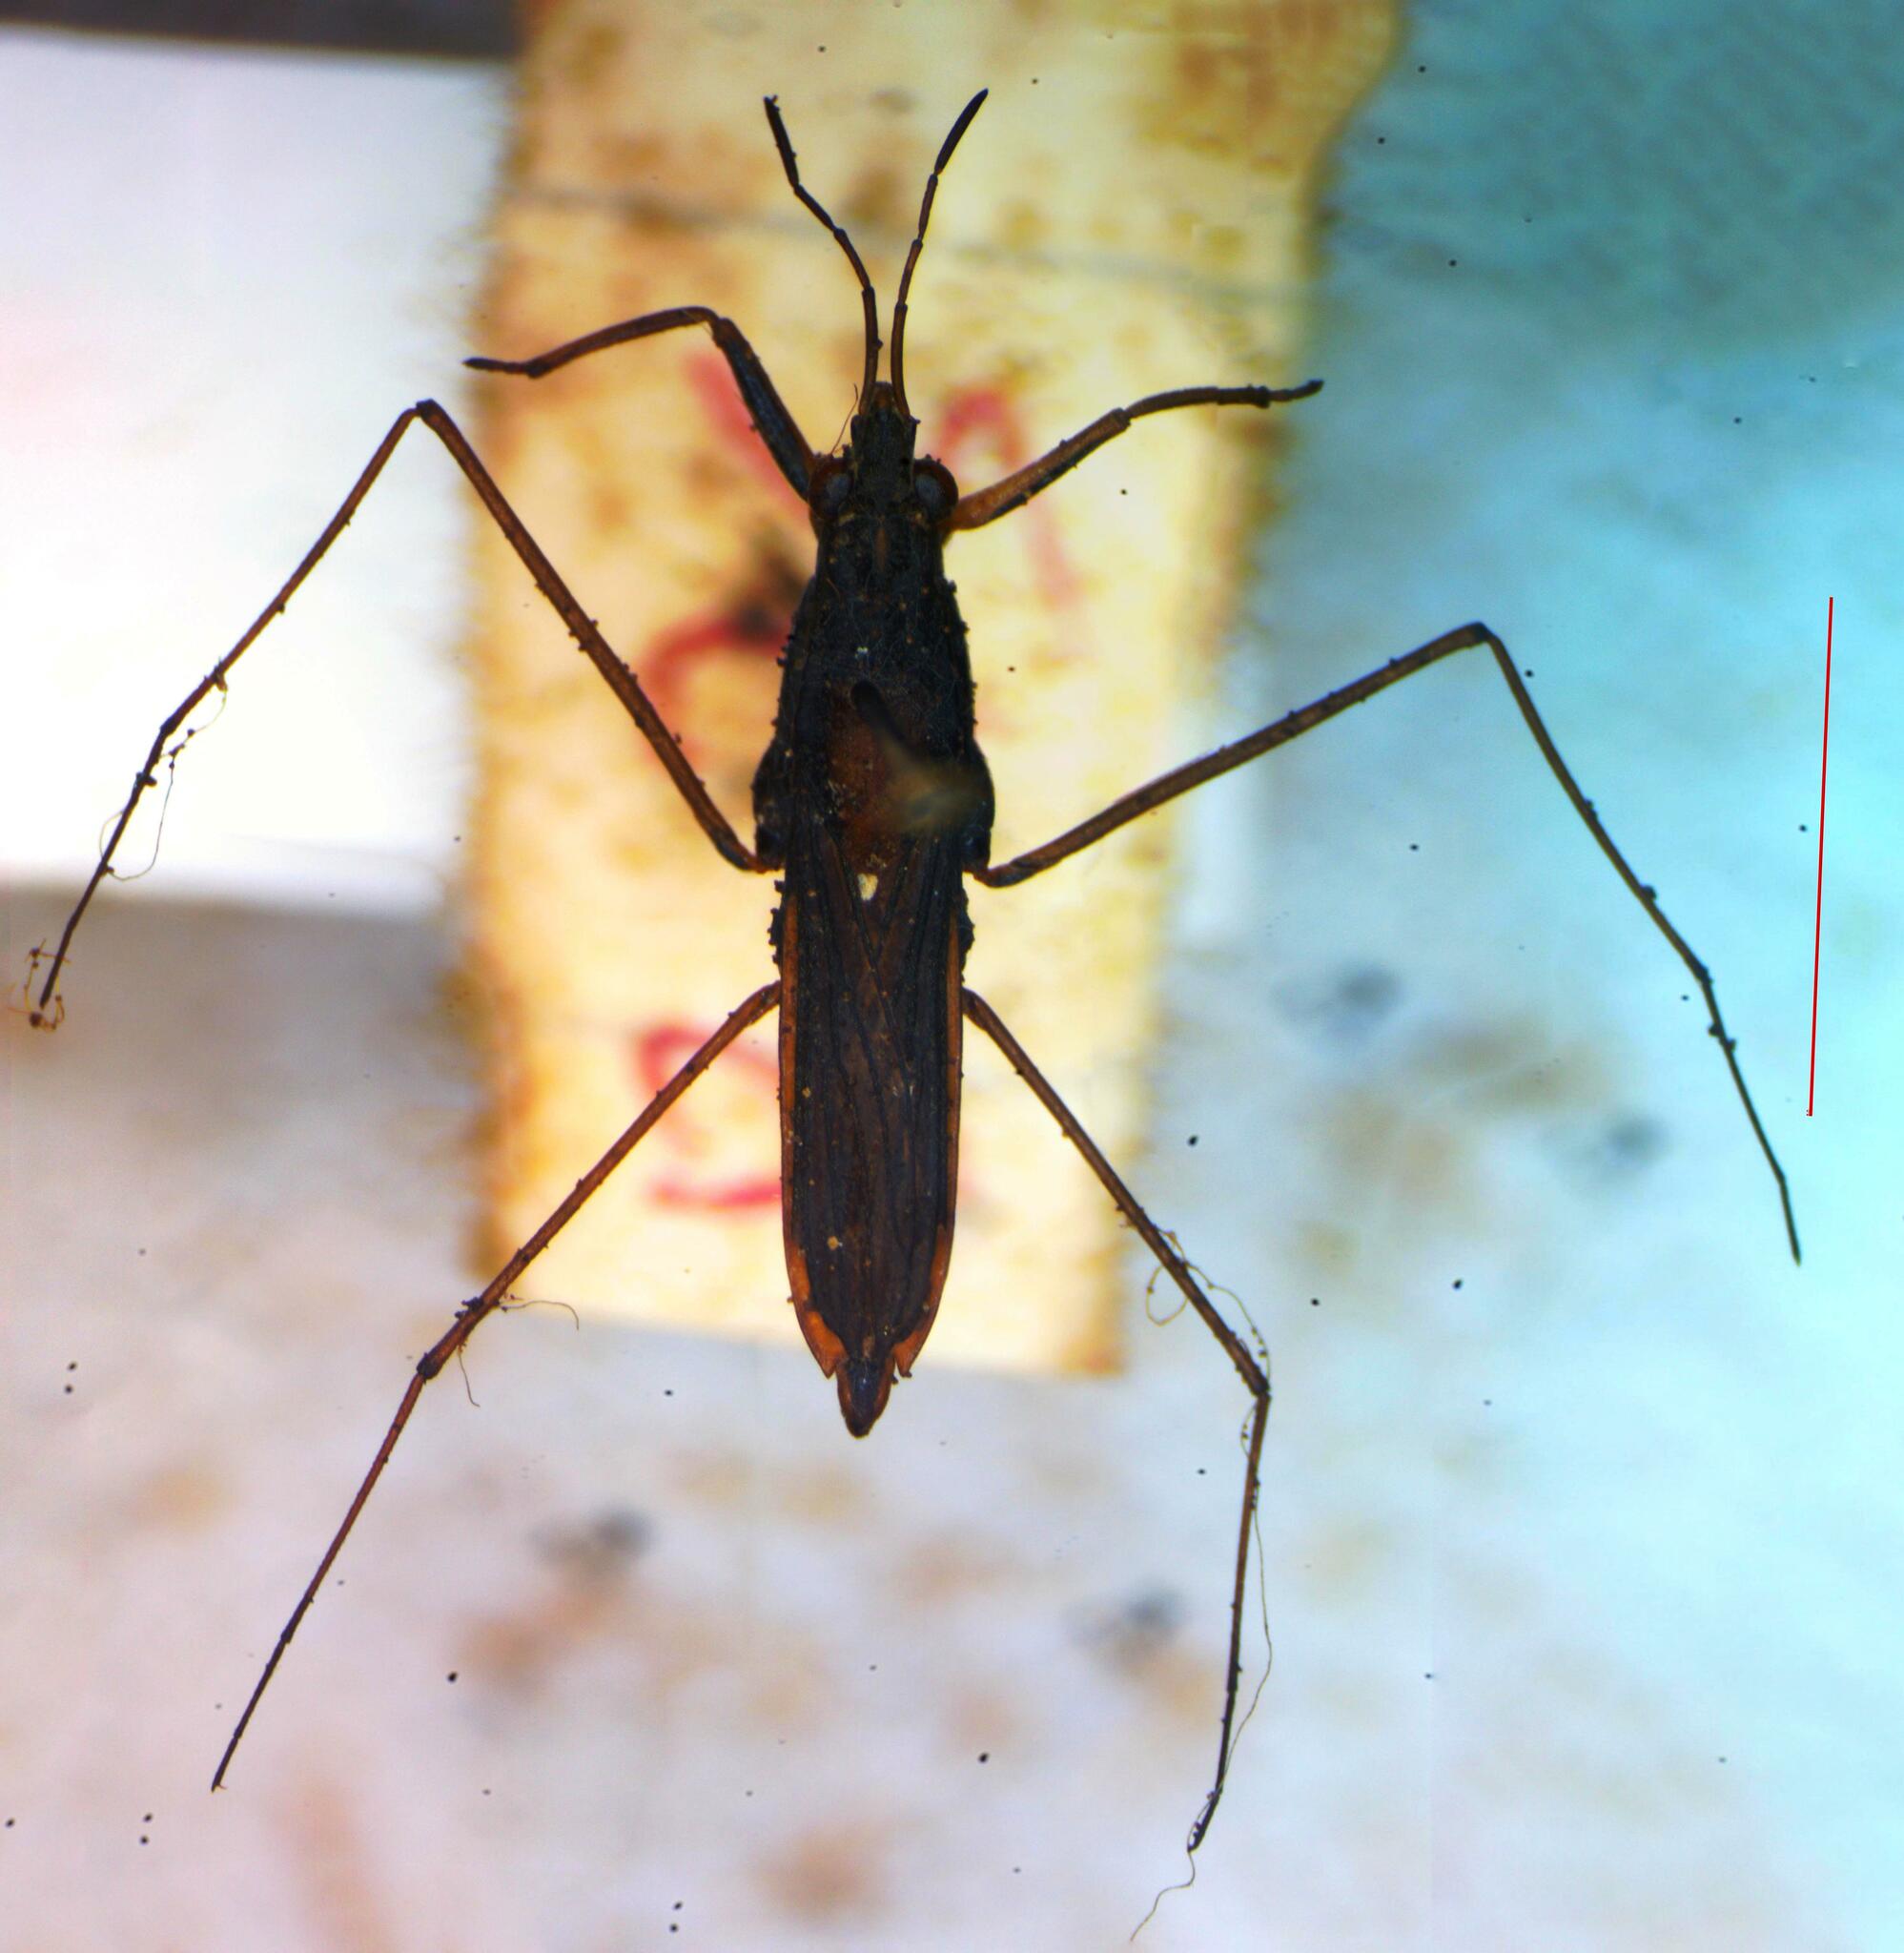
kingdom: Animalia
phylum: Arthropoda
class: Insecta
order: Hemiptera
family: Gerridae
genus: Gerris
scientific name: Gerris
